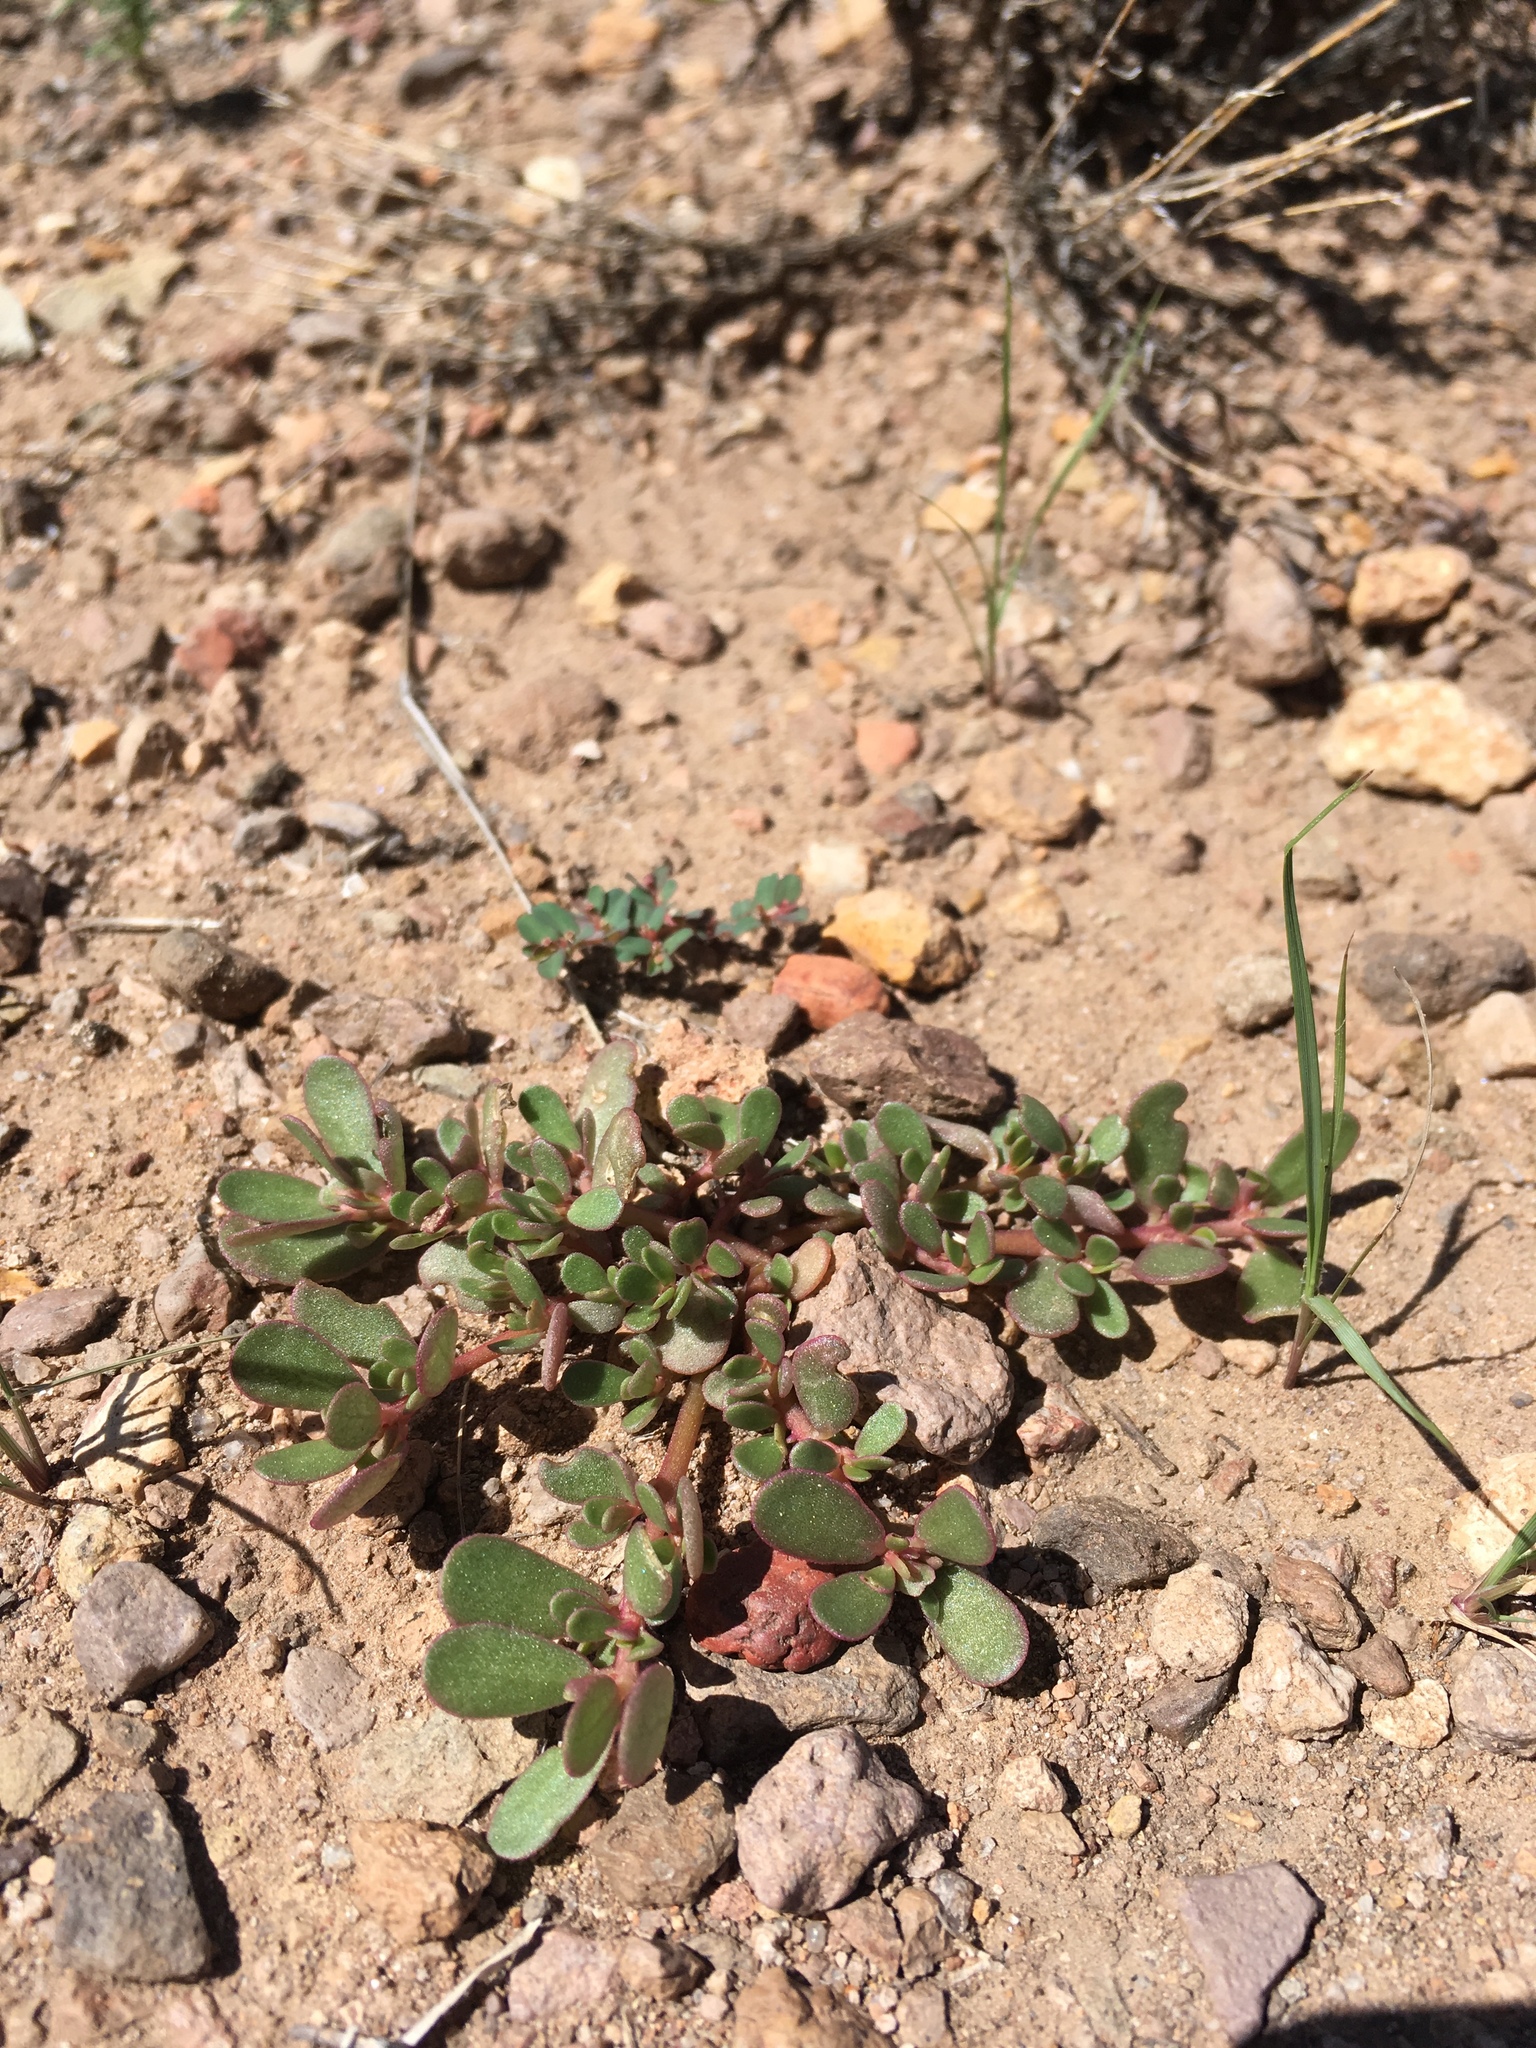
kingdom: Plantae
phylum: Tracheophyta
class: Magnoliopsida
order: Caryophyllales
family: Portulacaceae
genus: Portulaca
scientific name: Portulaca oleracea
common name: Common purslane
